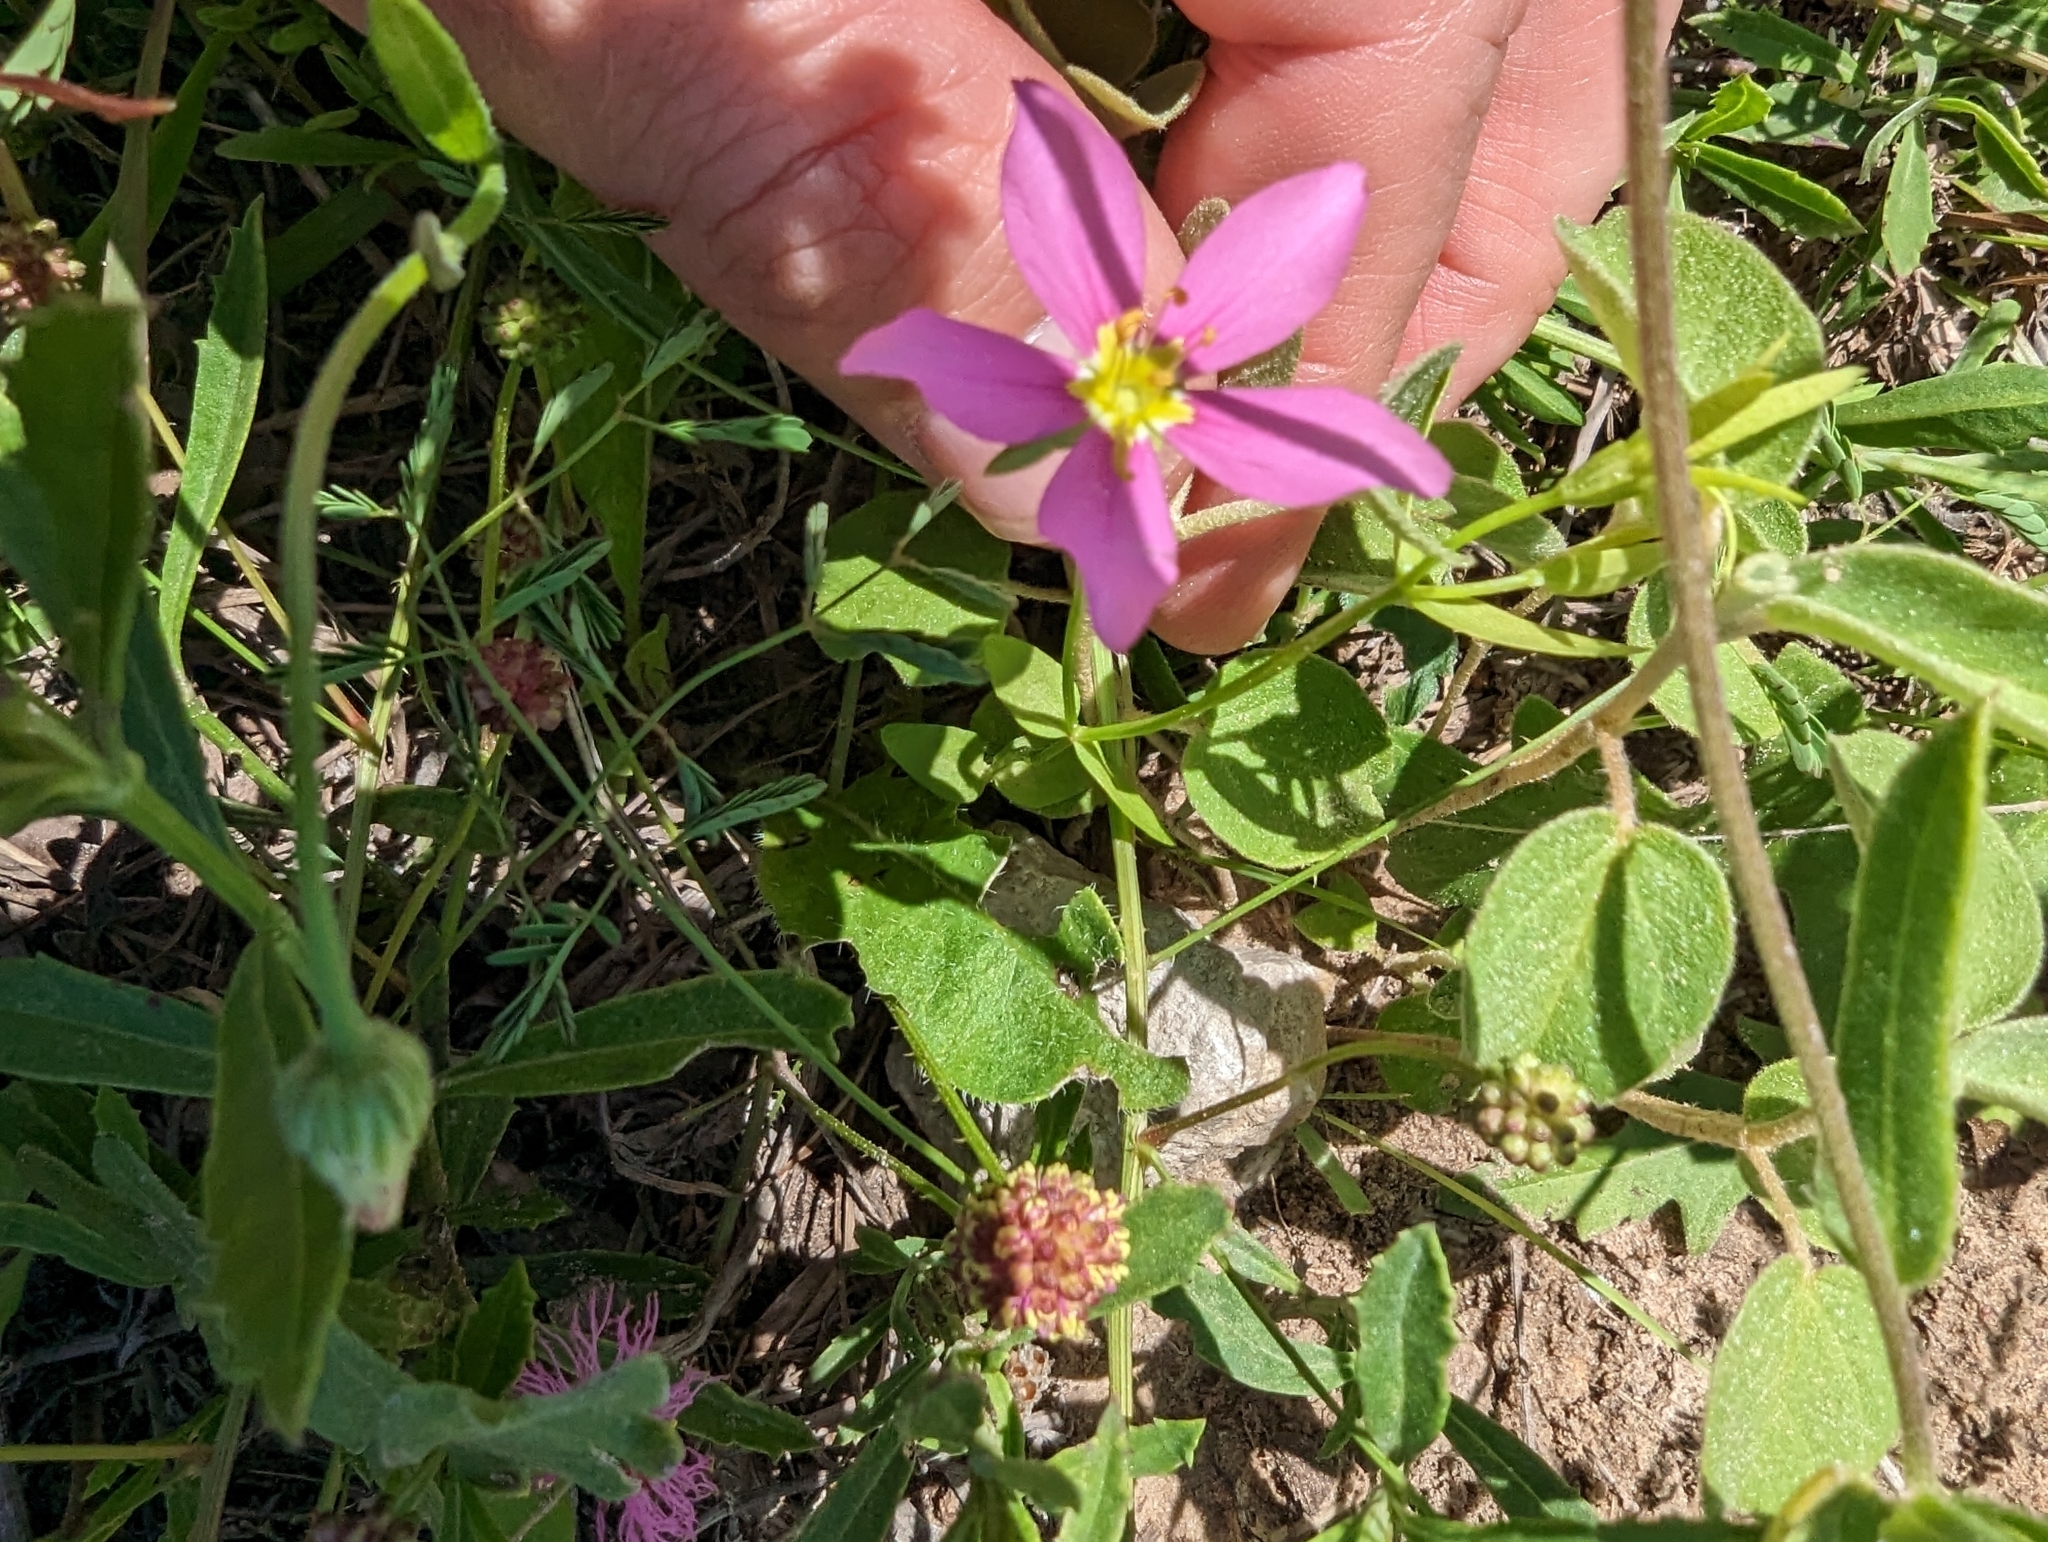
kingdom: Plantae
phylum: Tracheophyta
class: Magnoliopsida
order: Gentianales
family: Gentianaceae
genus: Sabatia
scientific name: Sabatia campestris
